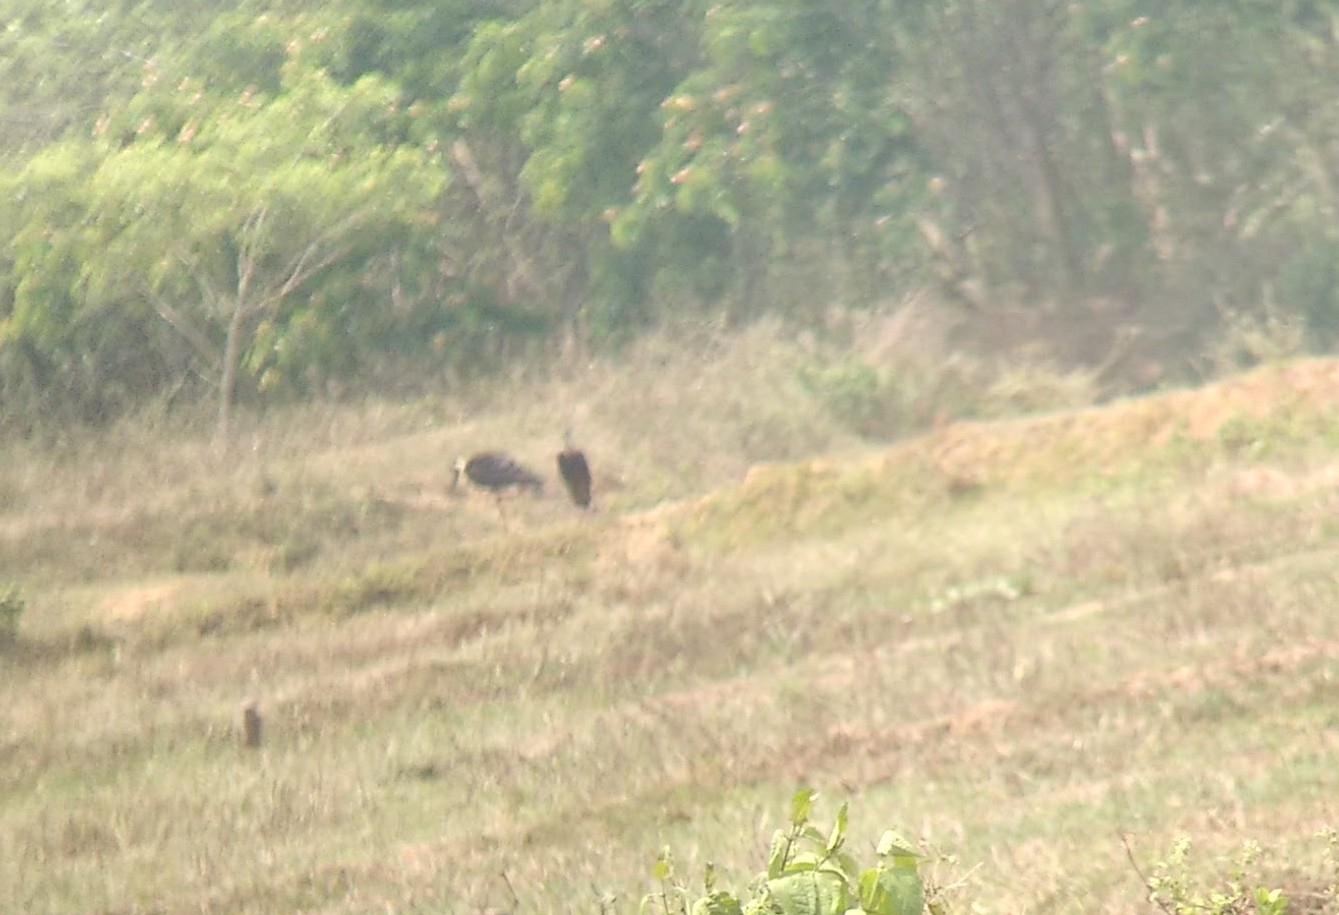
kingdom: Animalia
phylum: Chordata
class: Aves
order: Ciconiiformes
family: Ciconiidae
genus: Ciconia
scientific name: Ciconia episcopus
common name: Woolly-necked stork
